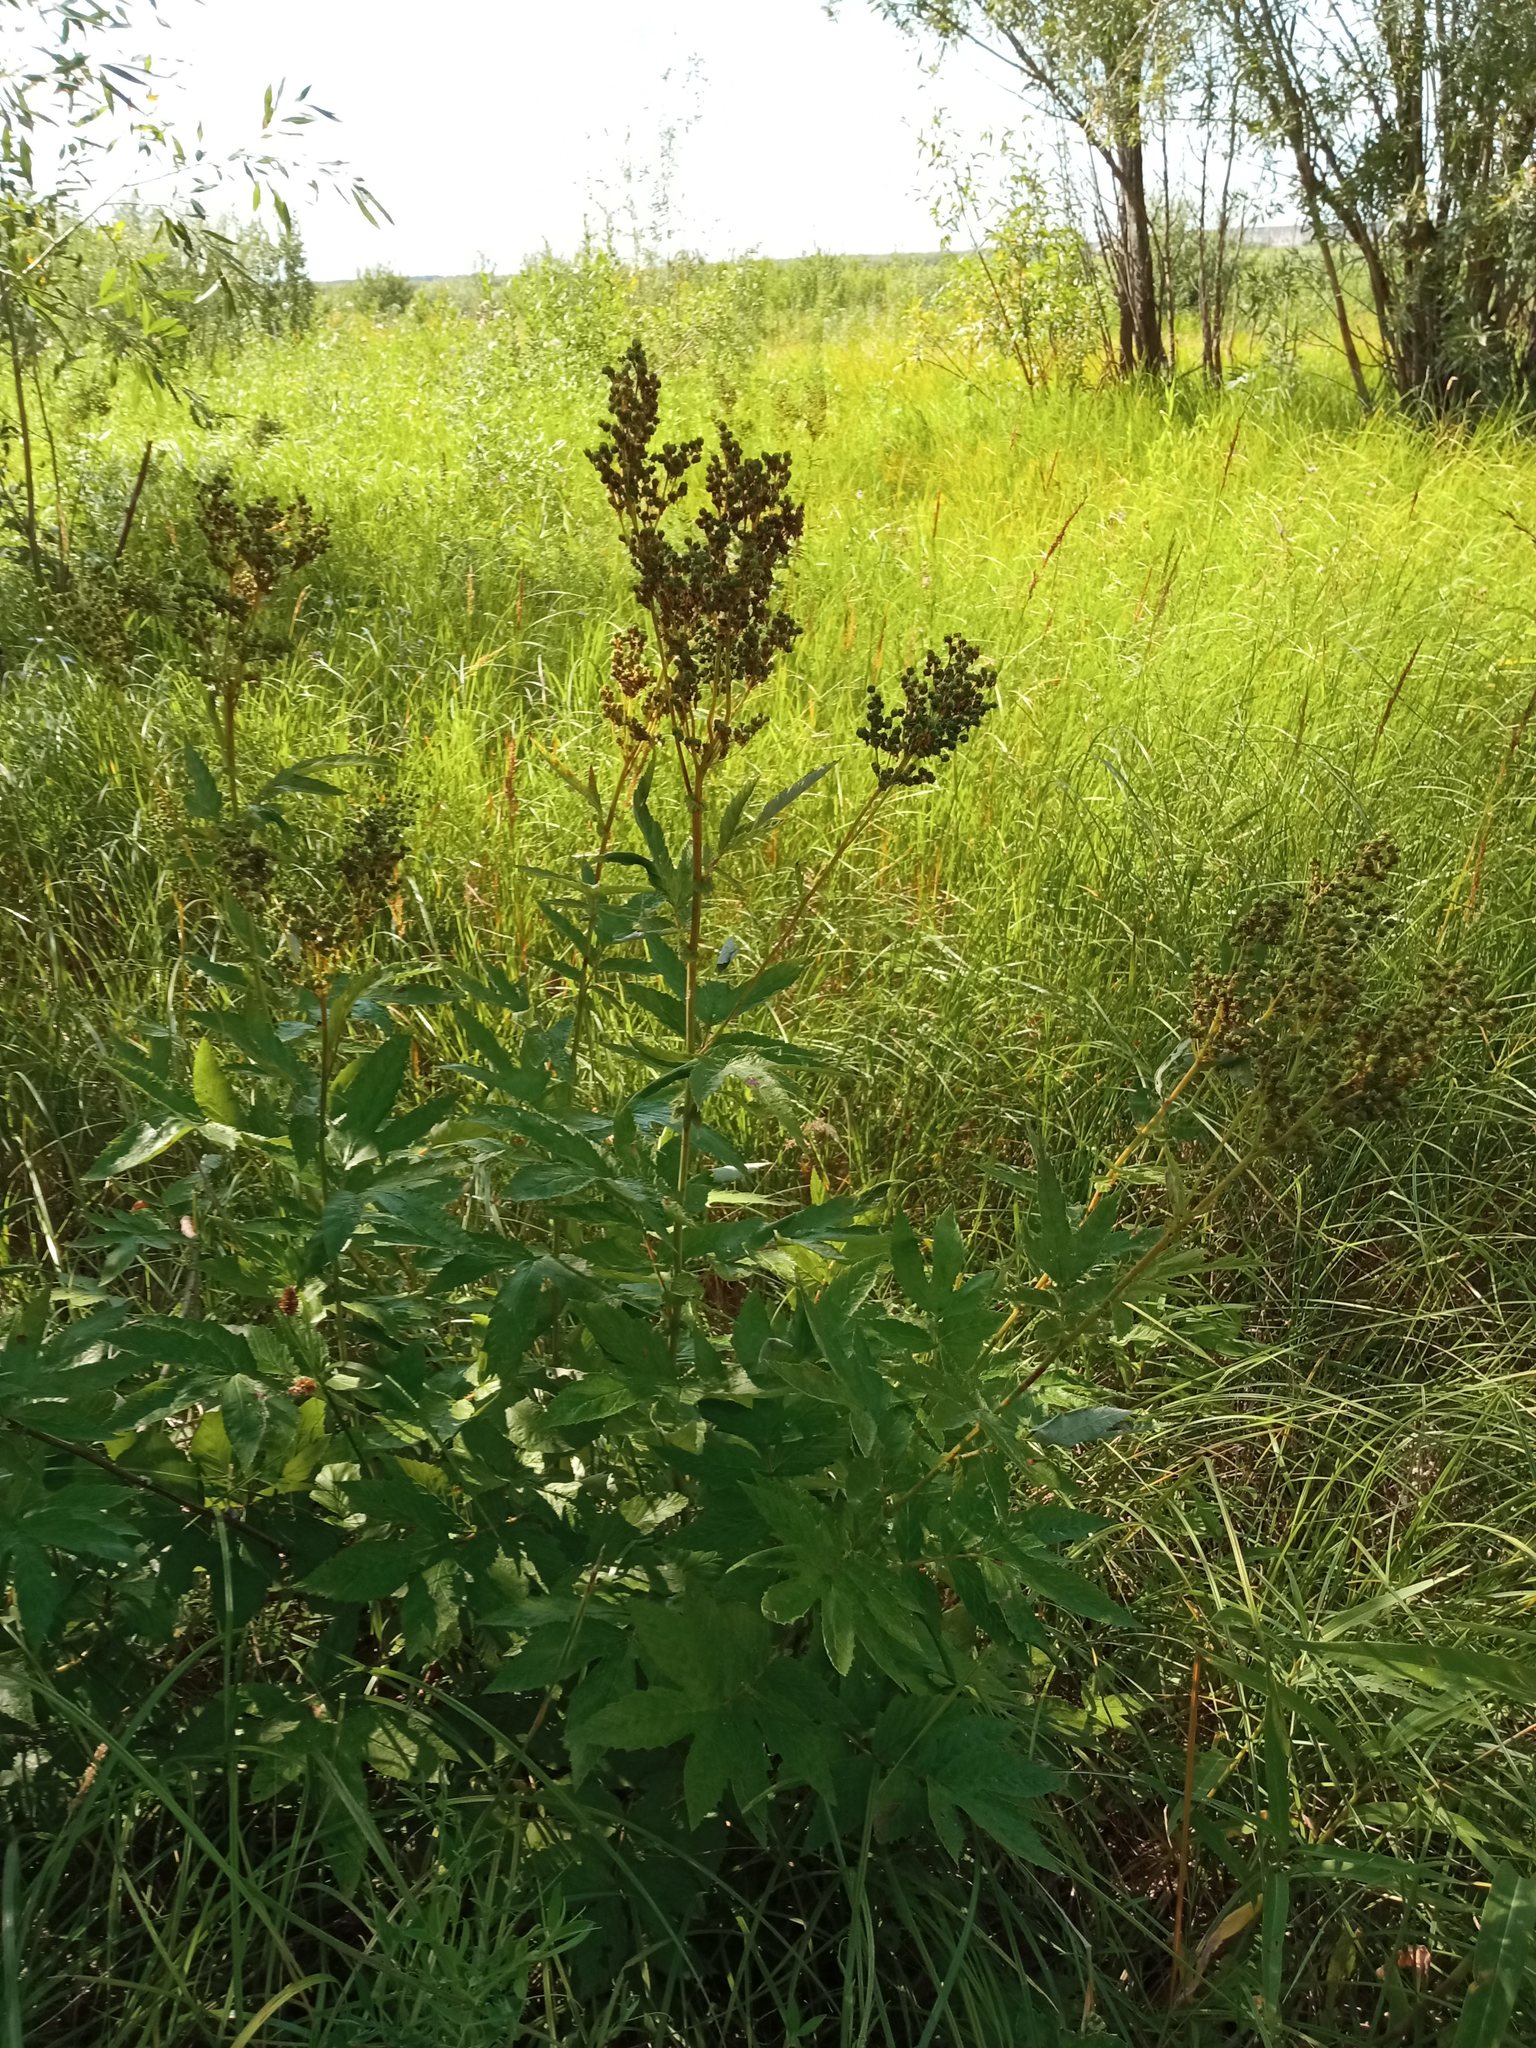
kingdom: Plantae
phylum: Tracheophyta
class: Magnoliopsida
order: Rosales
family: Rosaceae
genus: Filipendula
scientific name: Filipendula ulmaria
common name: Meadowsweet
